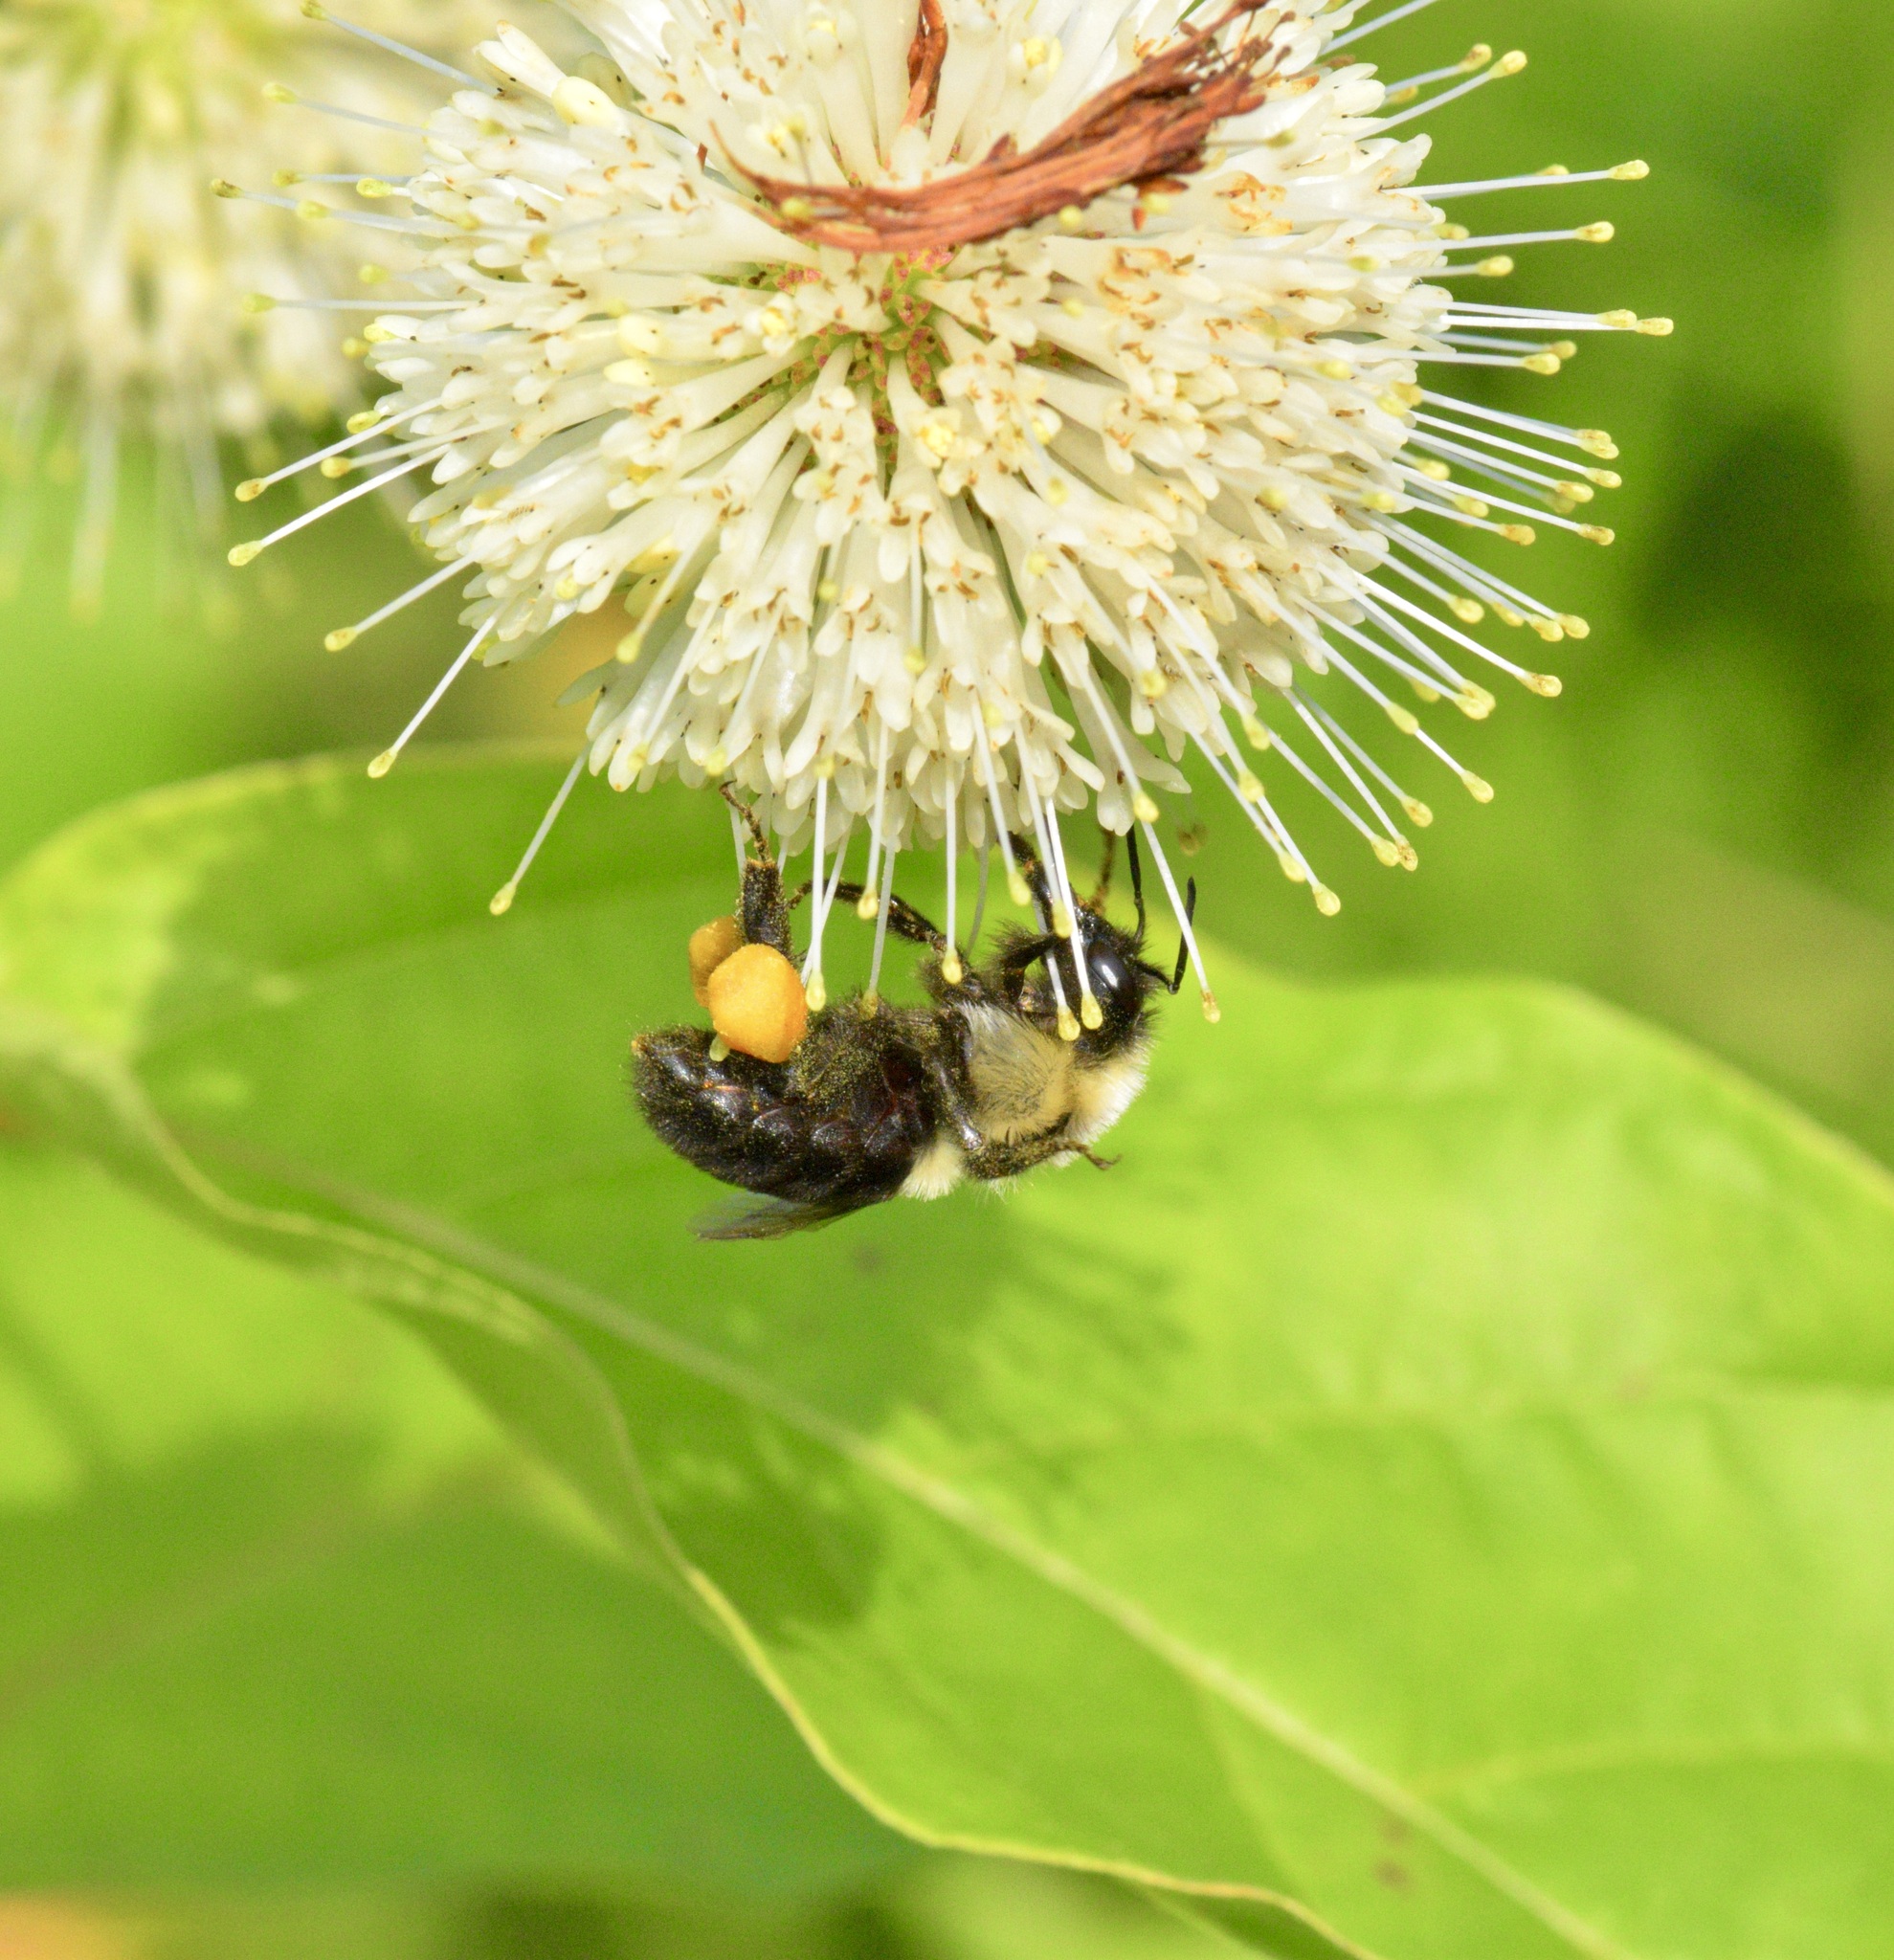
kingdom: Animalia
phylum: Arthropoda
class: Insecta
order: Hymenoptera
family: Apidae
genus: Bombus
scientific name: Bombus impatiens
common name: Common eastern bumble bee
